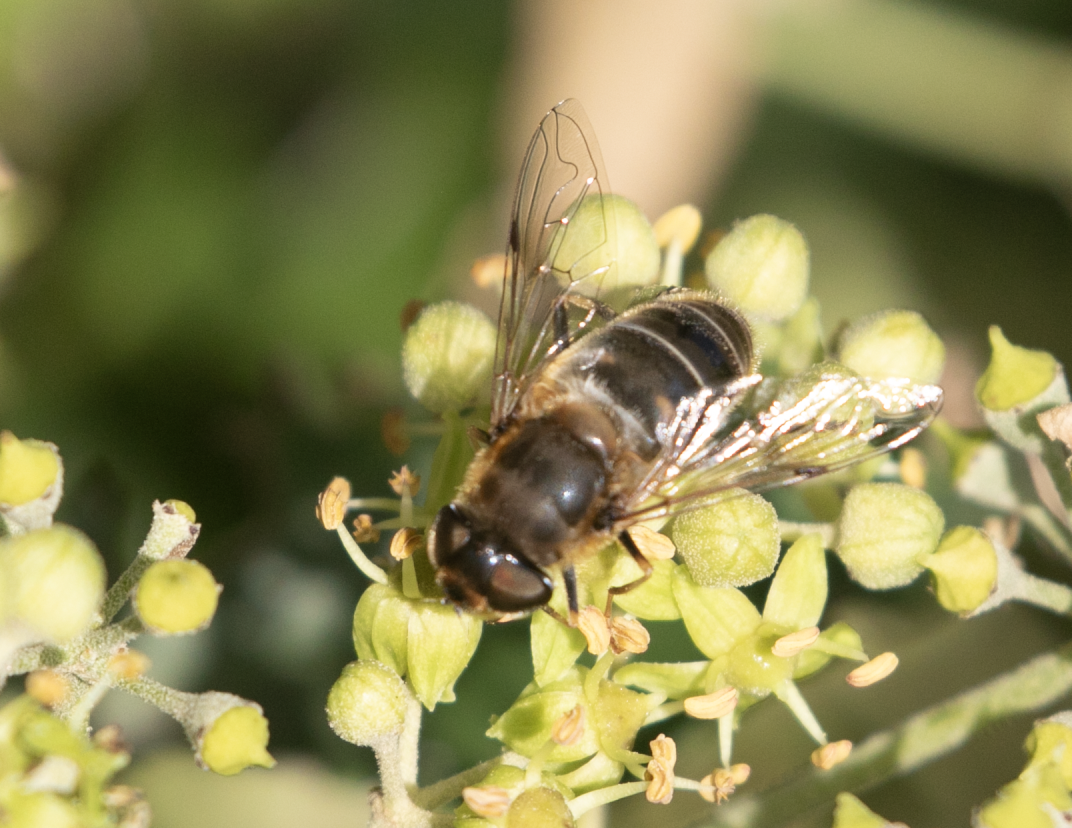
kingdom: Animalia
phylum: Arthropoda
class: Insecta
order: Diptera
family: Syrphidae
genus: Eristalis
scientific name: Eristalis pertinax
